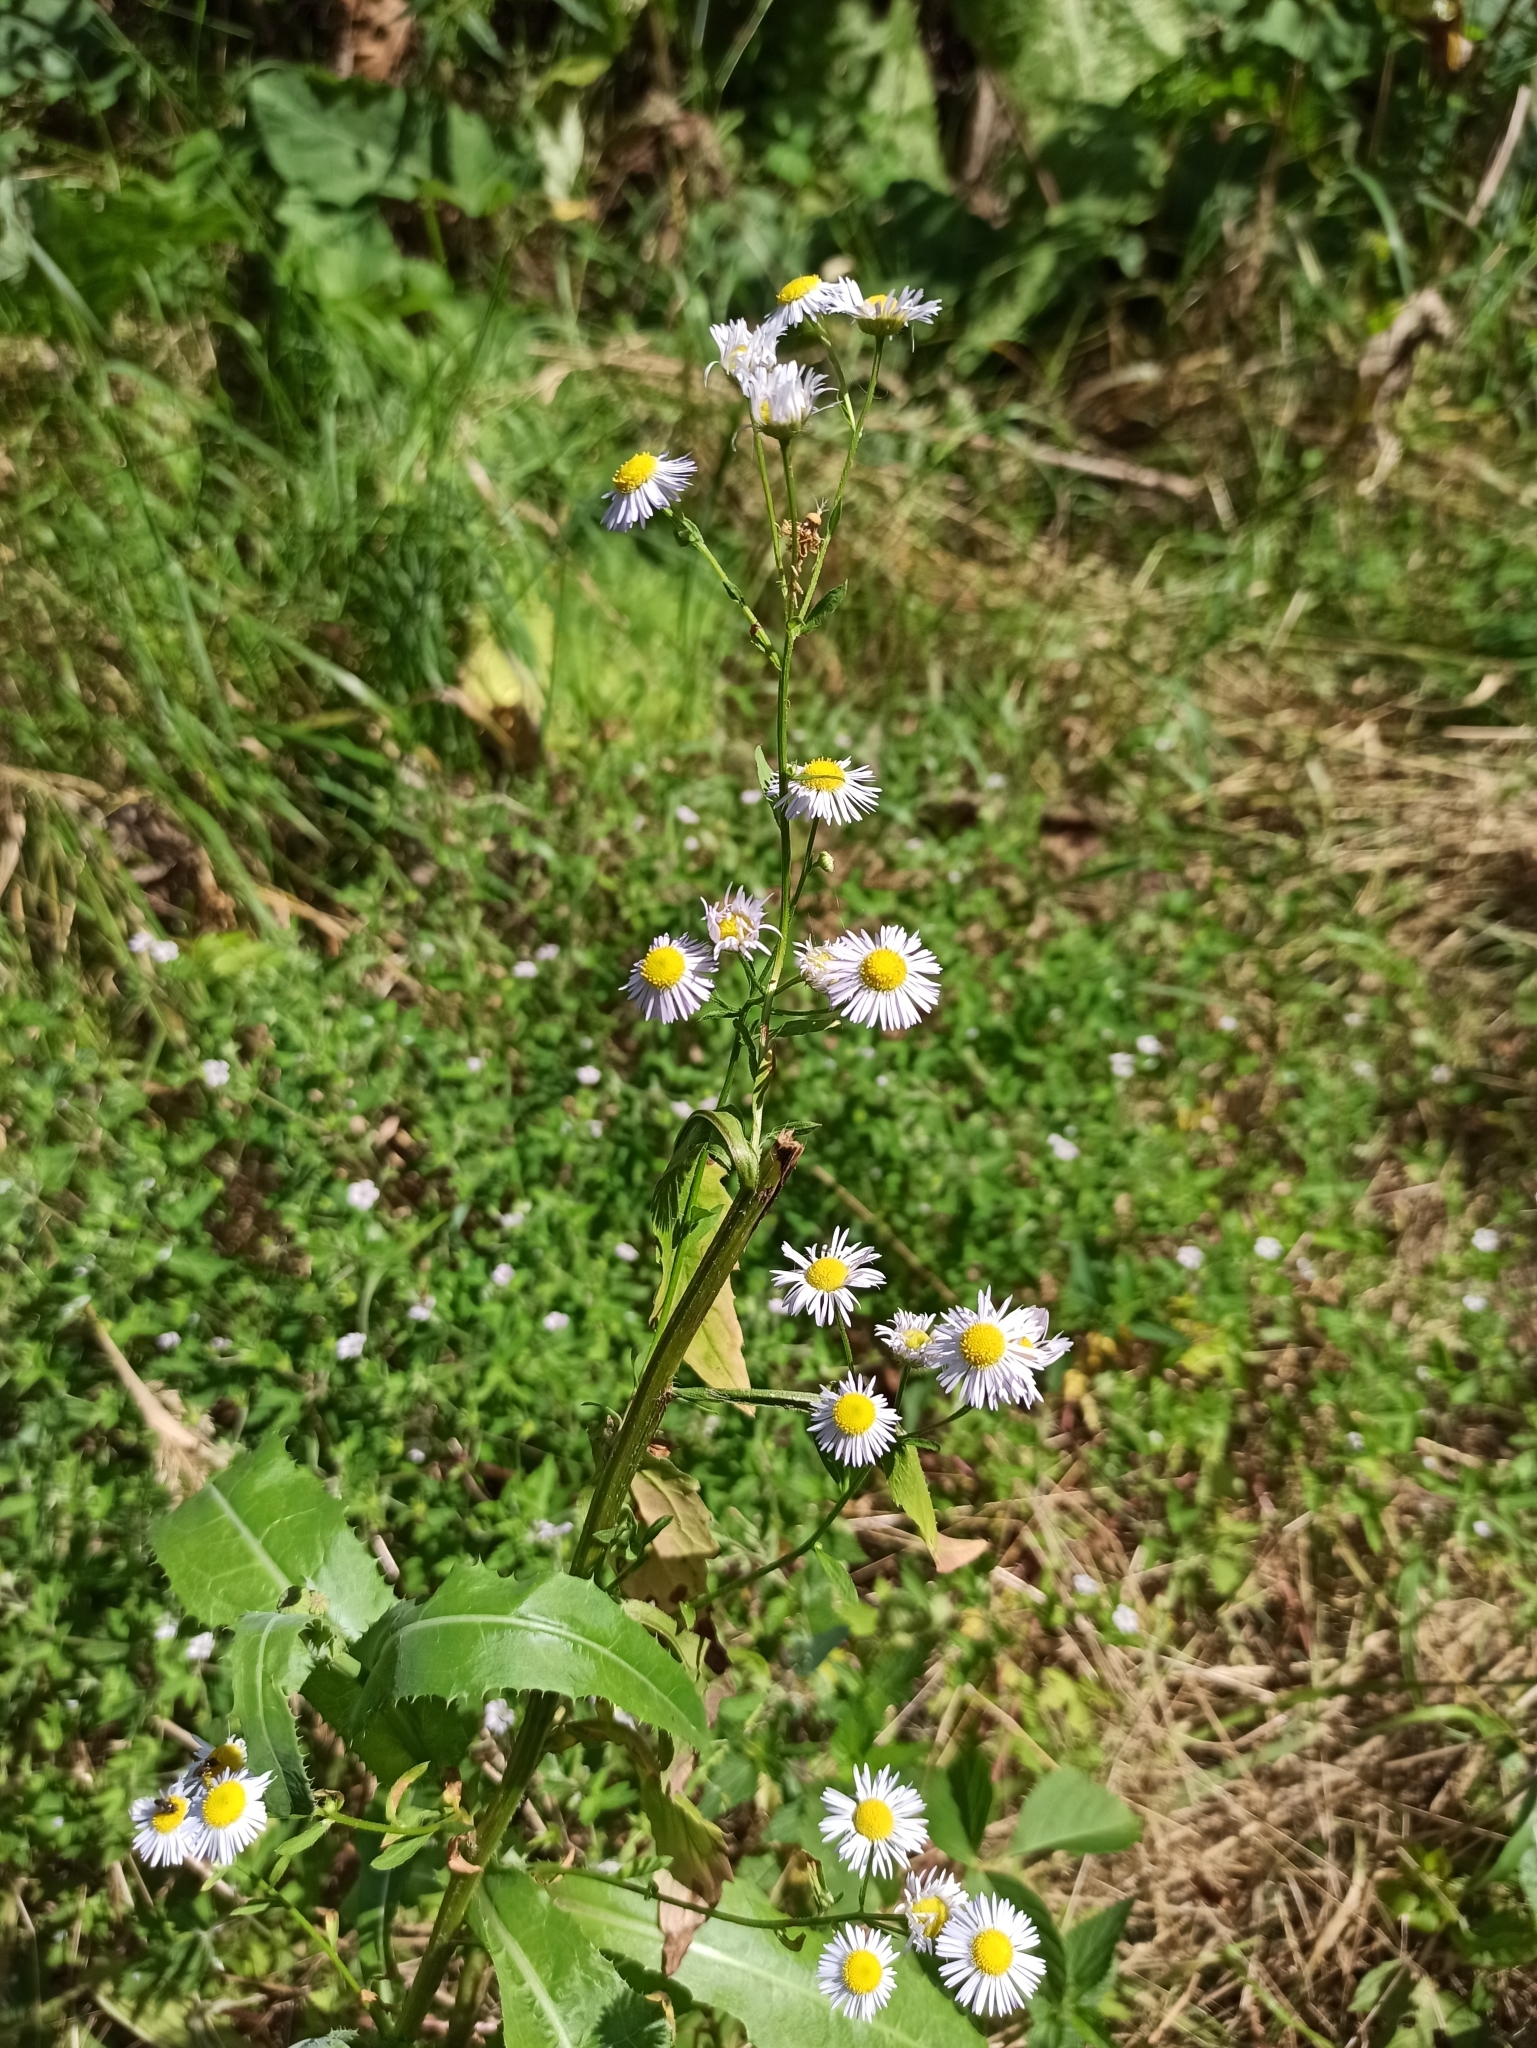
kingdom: Plantae
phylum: Tracheophyta
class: Magnoliopsida
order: Asterales
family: Asteraceae
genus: Erigeron
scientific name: Erigeron annuus
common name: Tall fleabane
